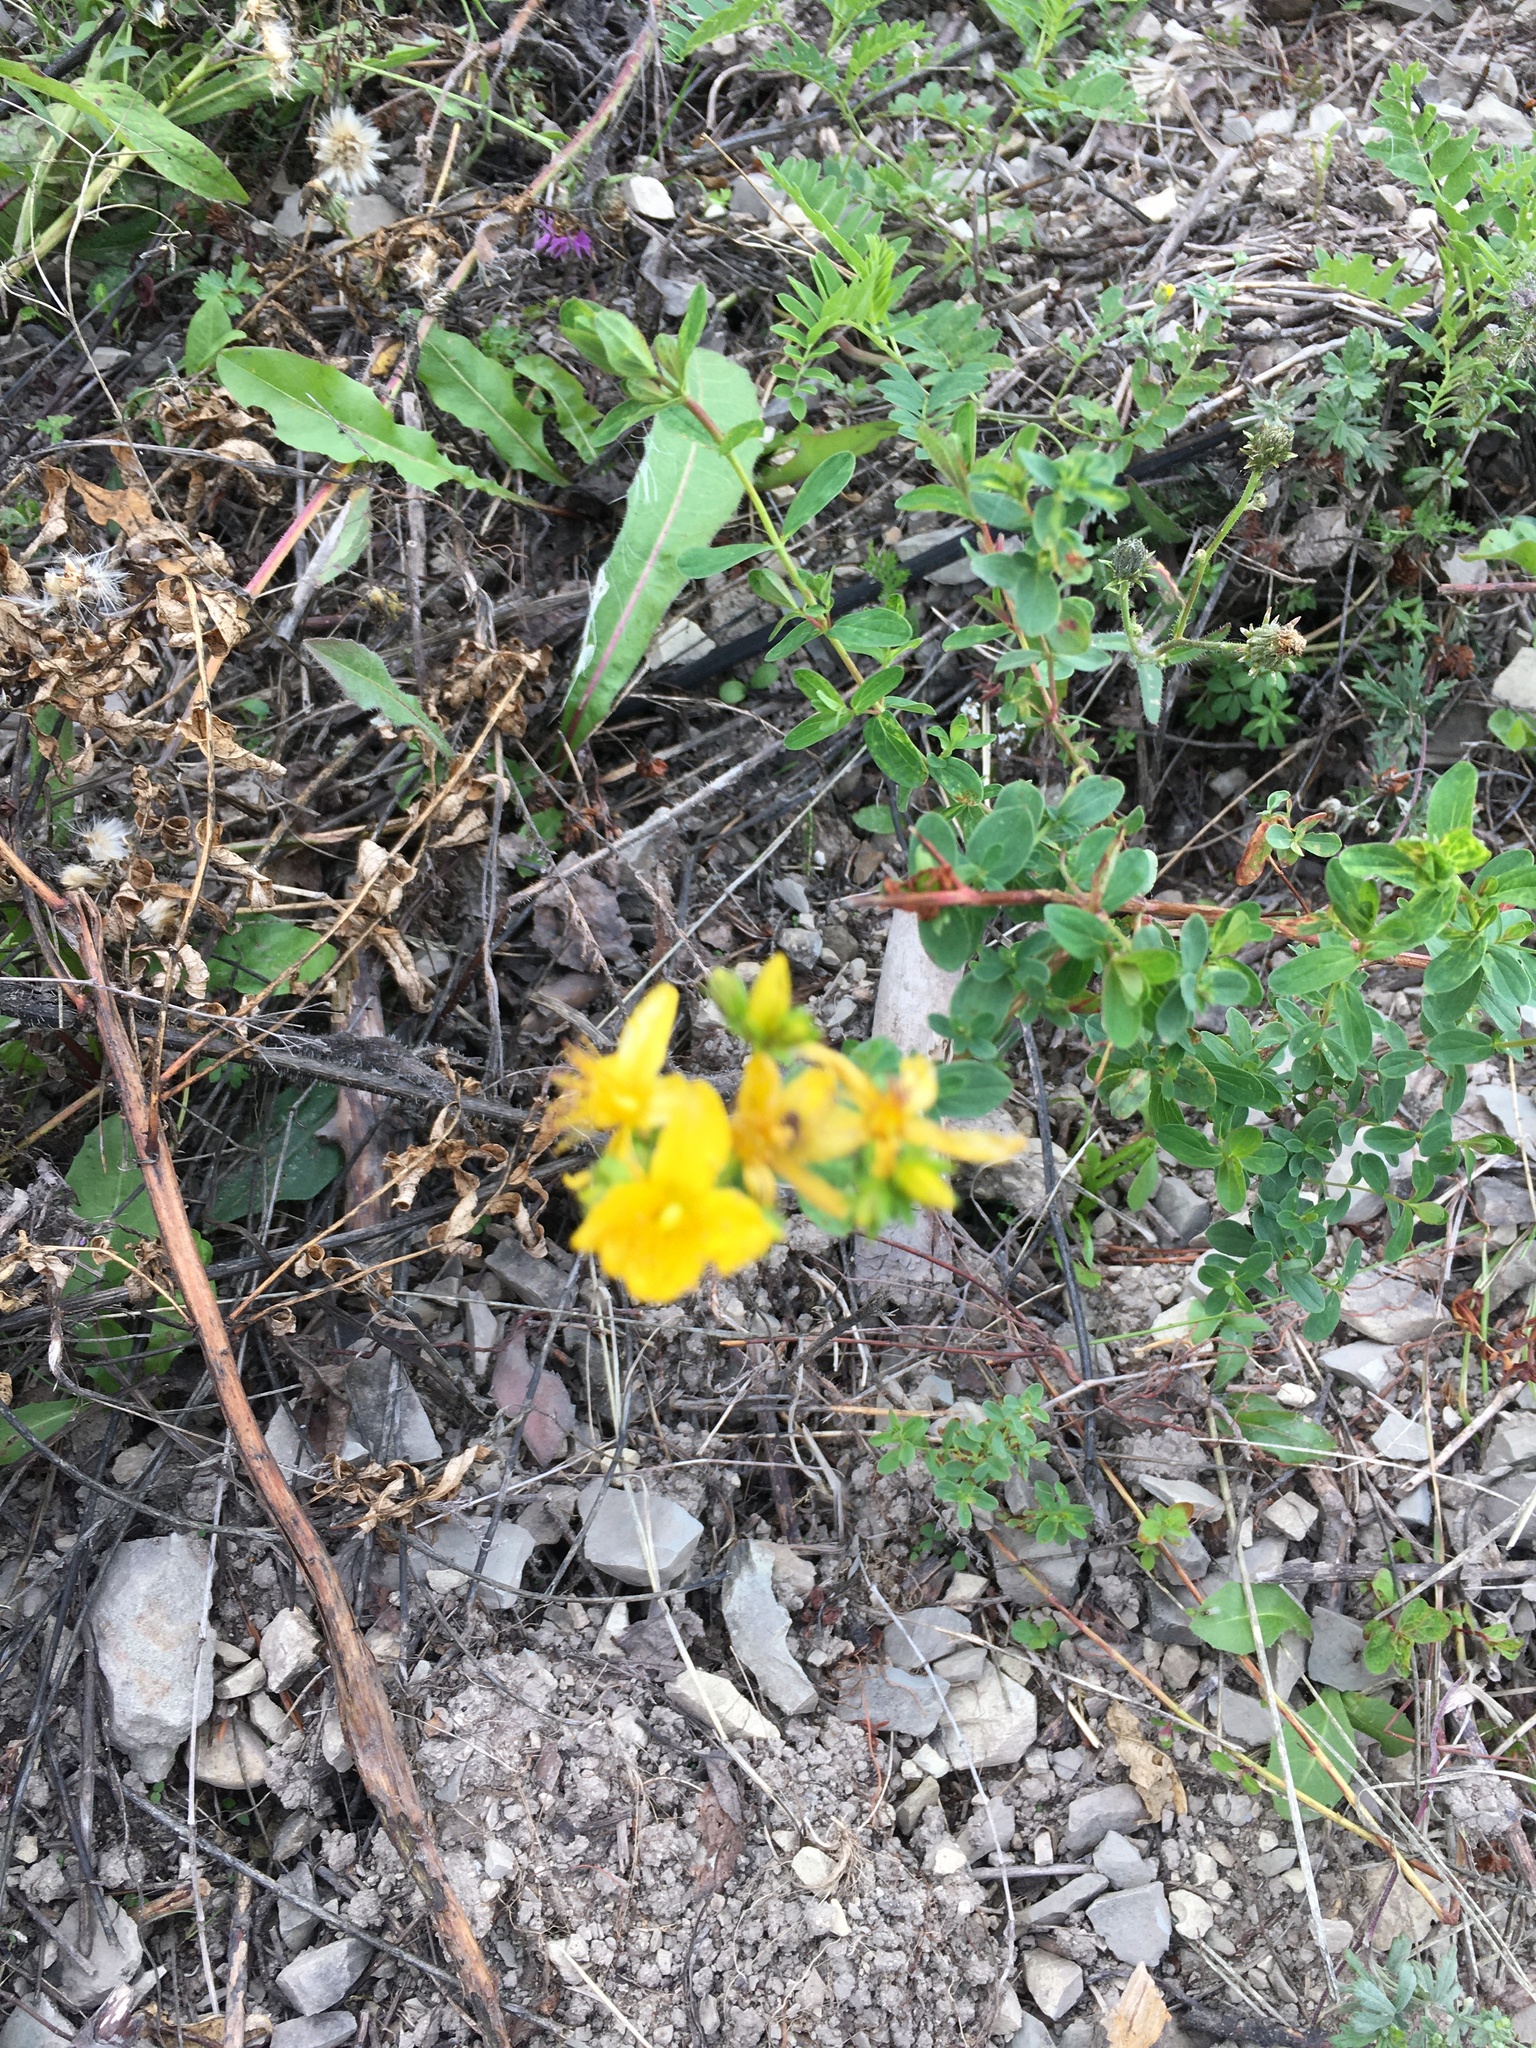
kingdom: Plantae
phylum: Tracheophyta
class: Magnoliopsida
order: Malpighiales
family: Hypericaceae
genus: Hypericum
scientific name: Hypericum perforatum
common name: Common st. johnswort
